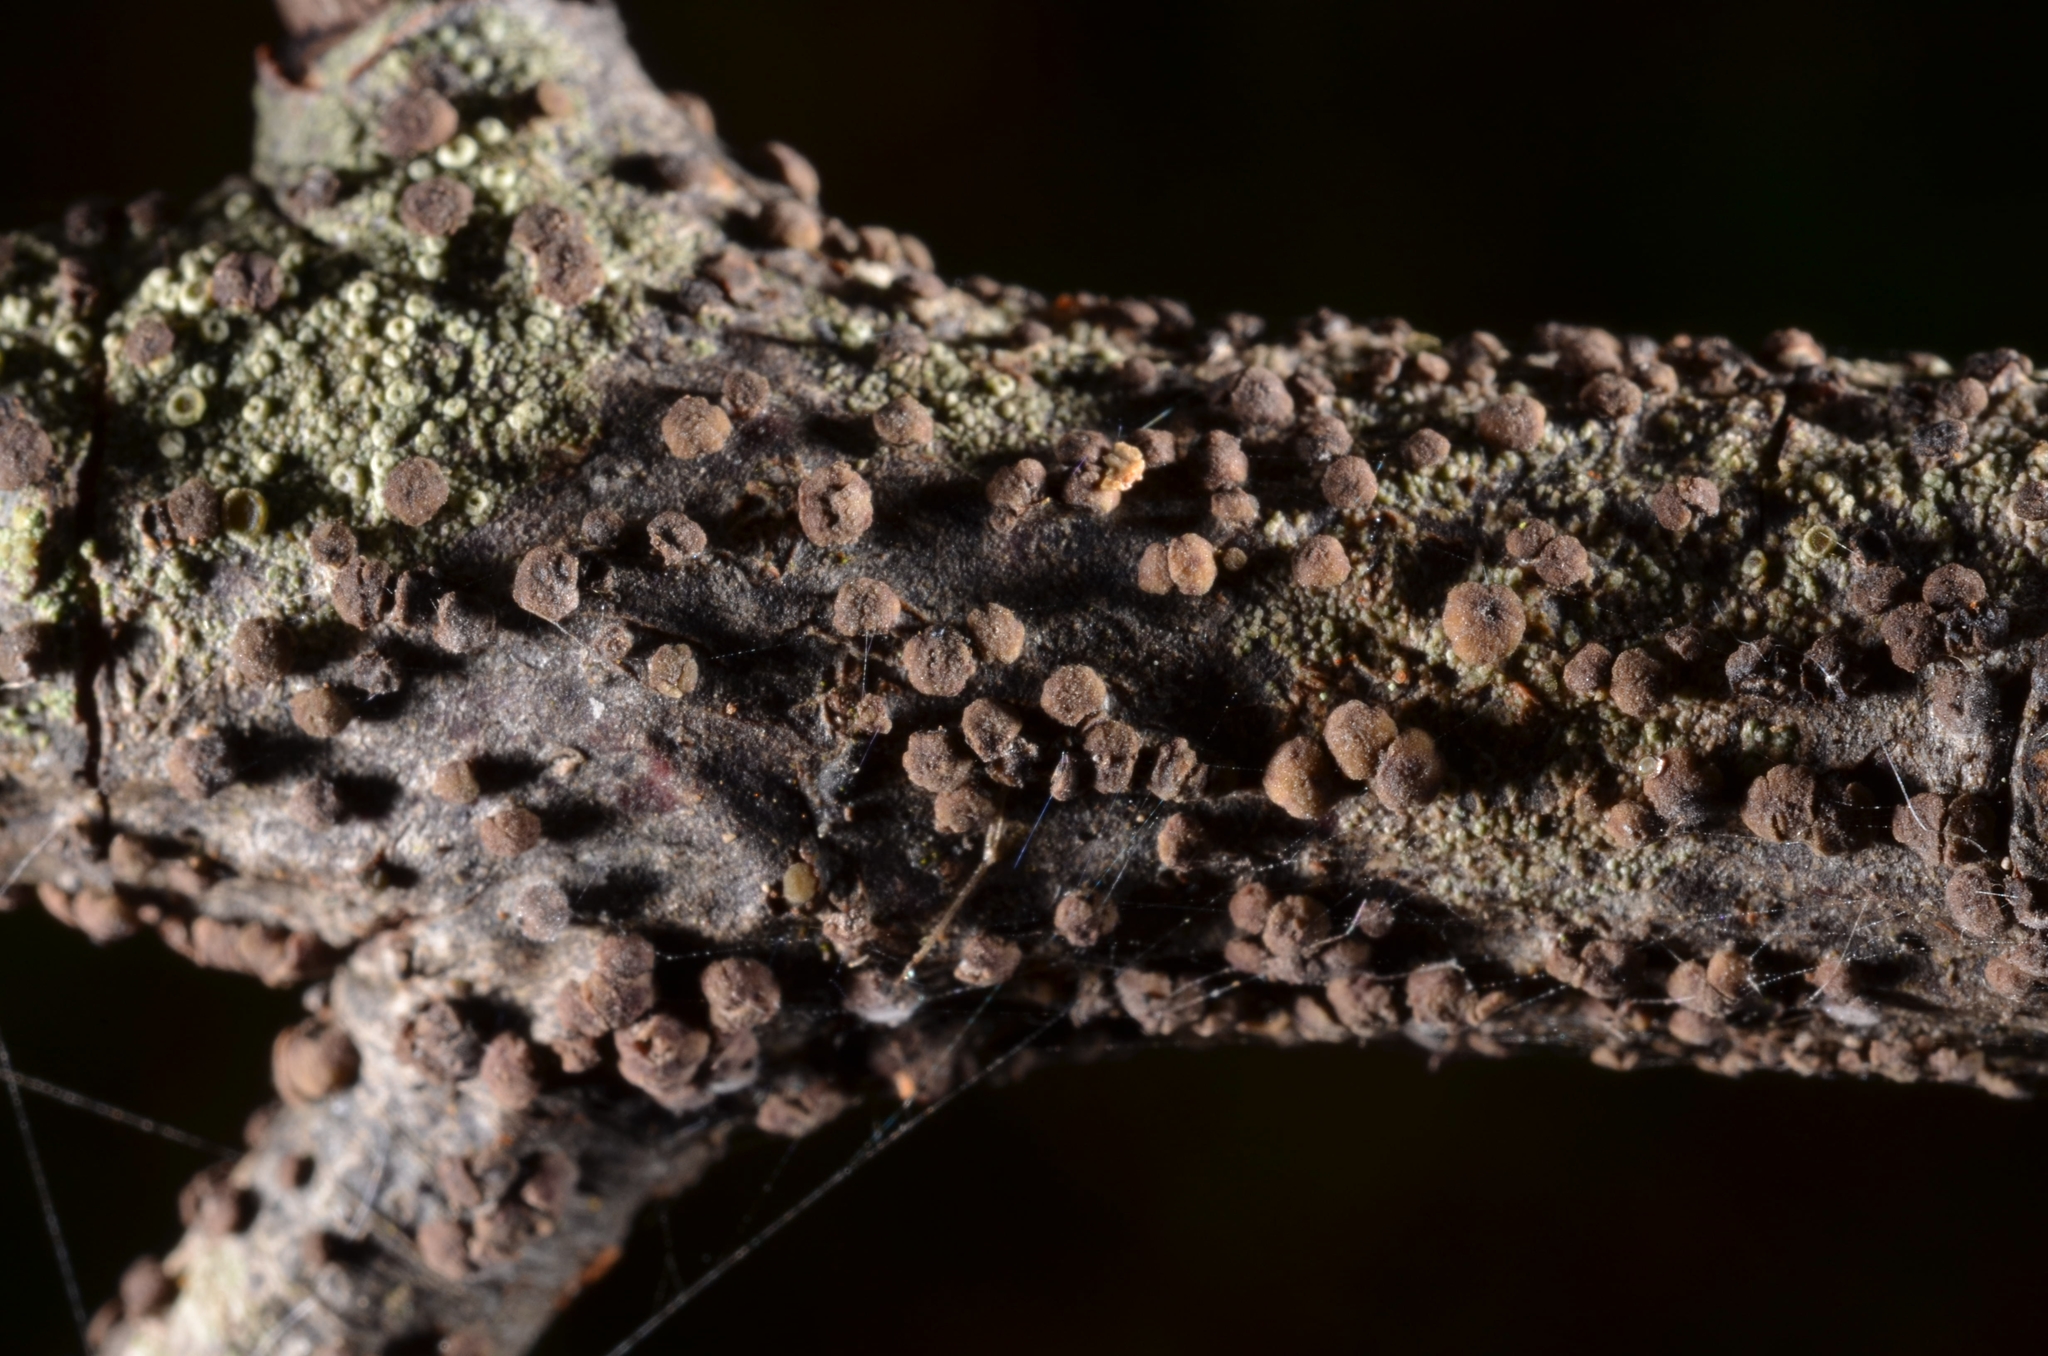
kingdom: Fungi
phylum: Ascomycota
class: Leotiomycetes
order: Helotiales
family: Dermateaceae
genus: Pezicula
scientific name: Pezicula frangulae
